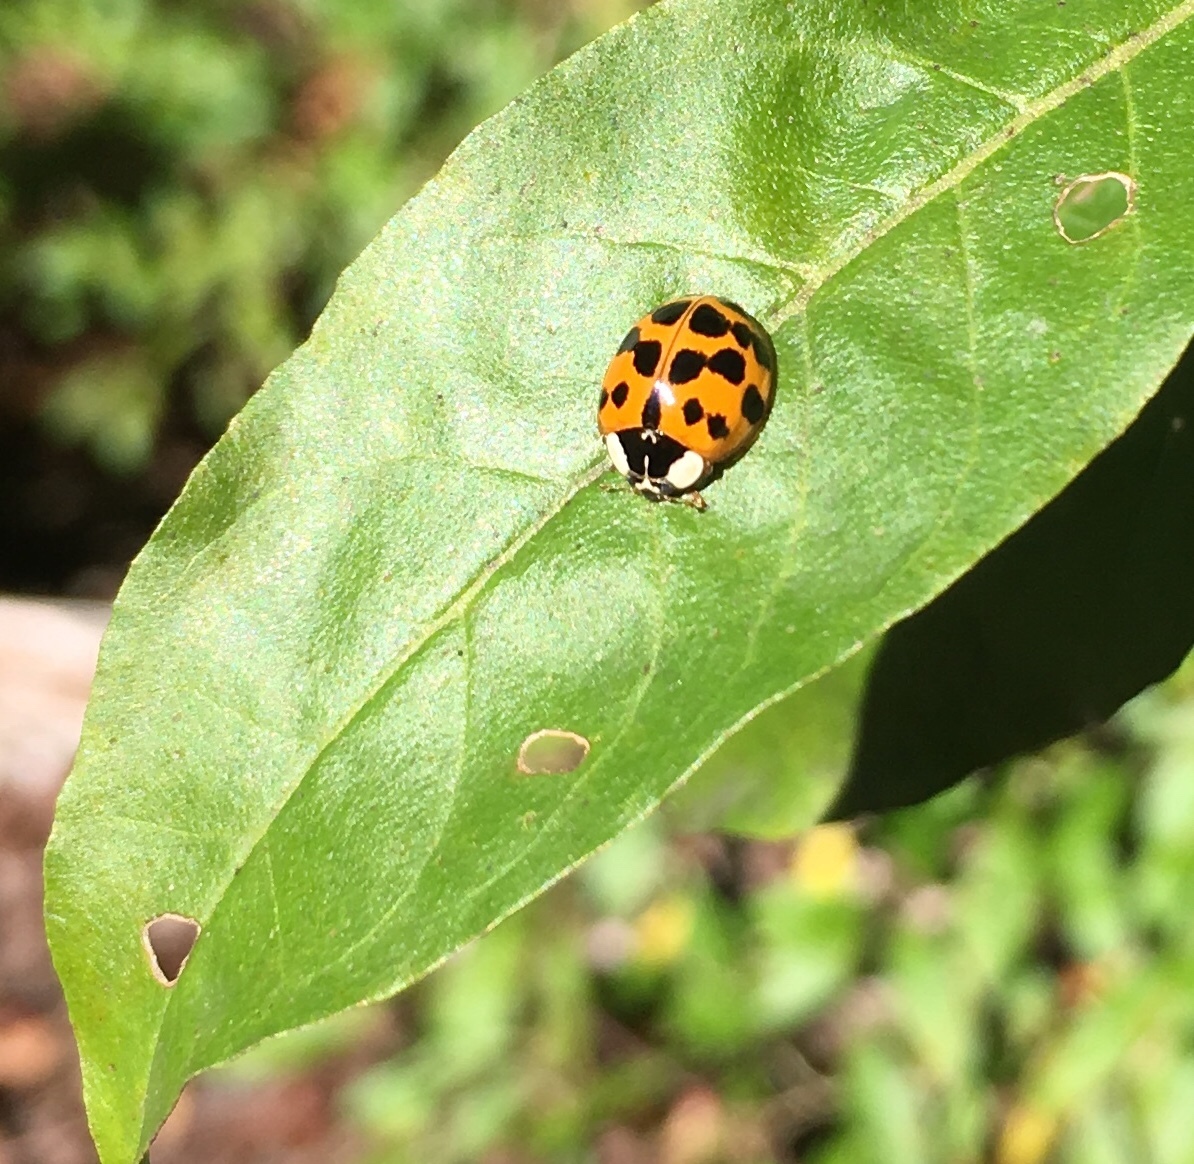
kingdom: Animalia
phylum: Arthropoda
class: Insecta
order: Coleoptera
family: Coccinellidae
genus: Harmonia
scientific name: Harmonia axyridis
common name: Harlequin ladybird
